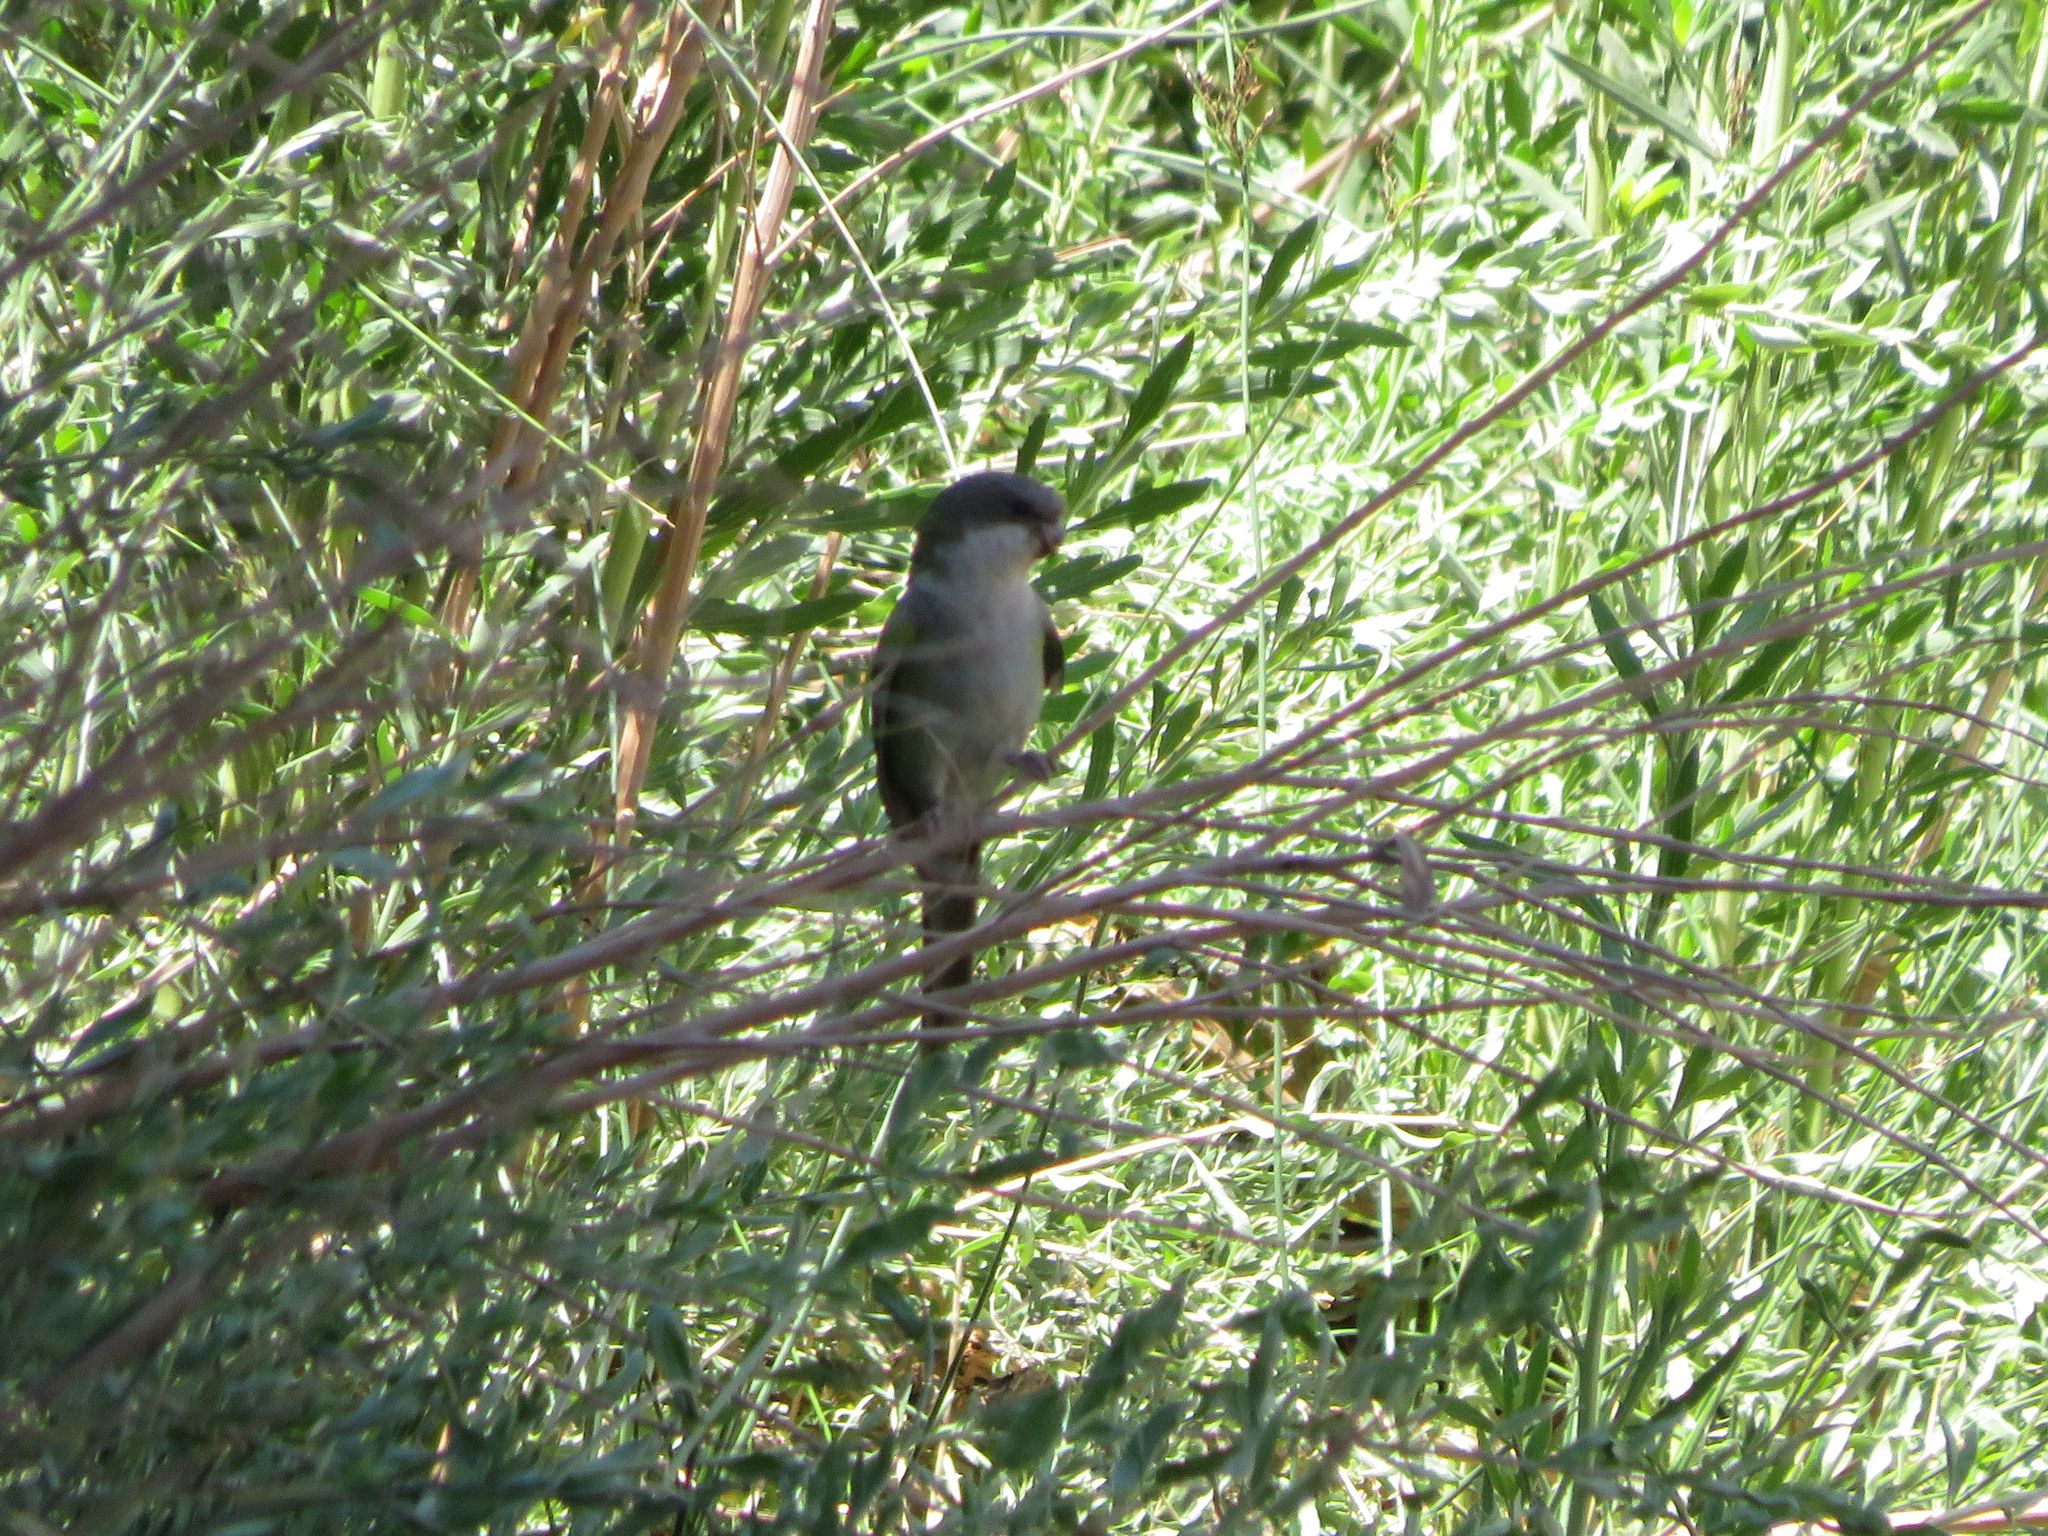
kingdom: Animalia
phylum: Chordata
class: Aves
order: Psittaciformes
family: Psittacidae
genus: Psilopsiagon
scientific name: Psilopsiagon aymara
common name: Grey-hooded parakeet
